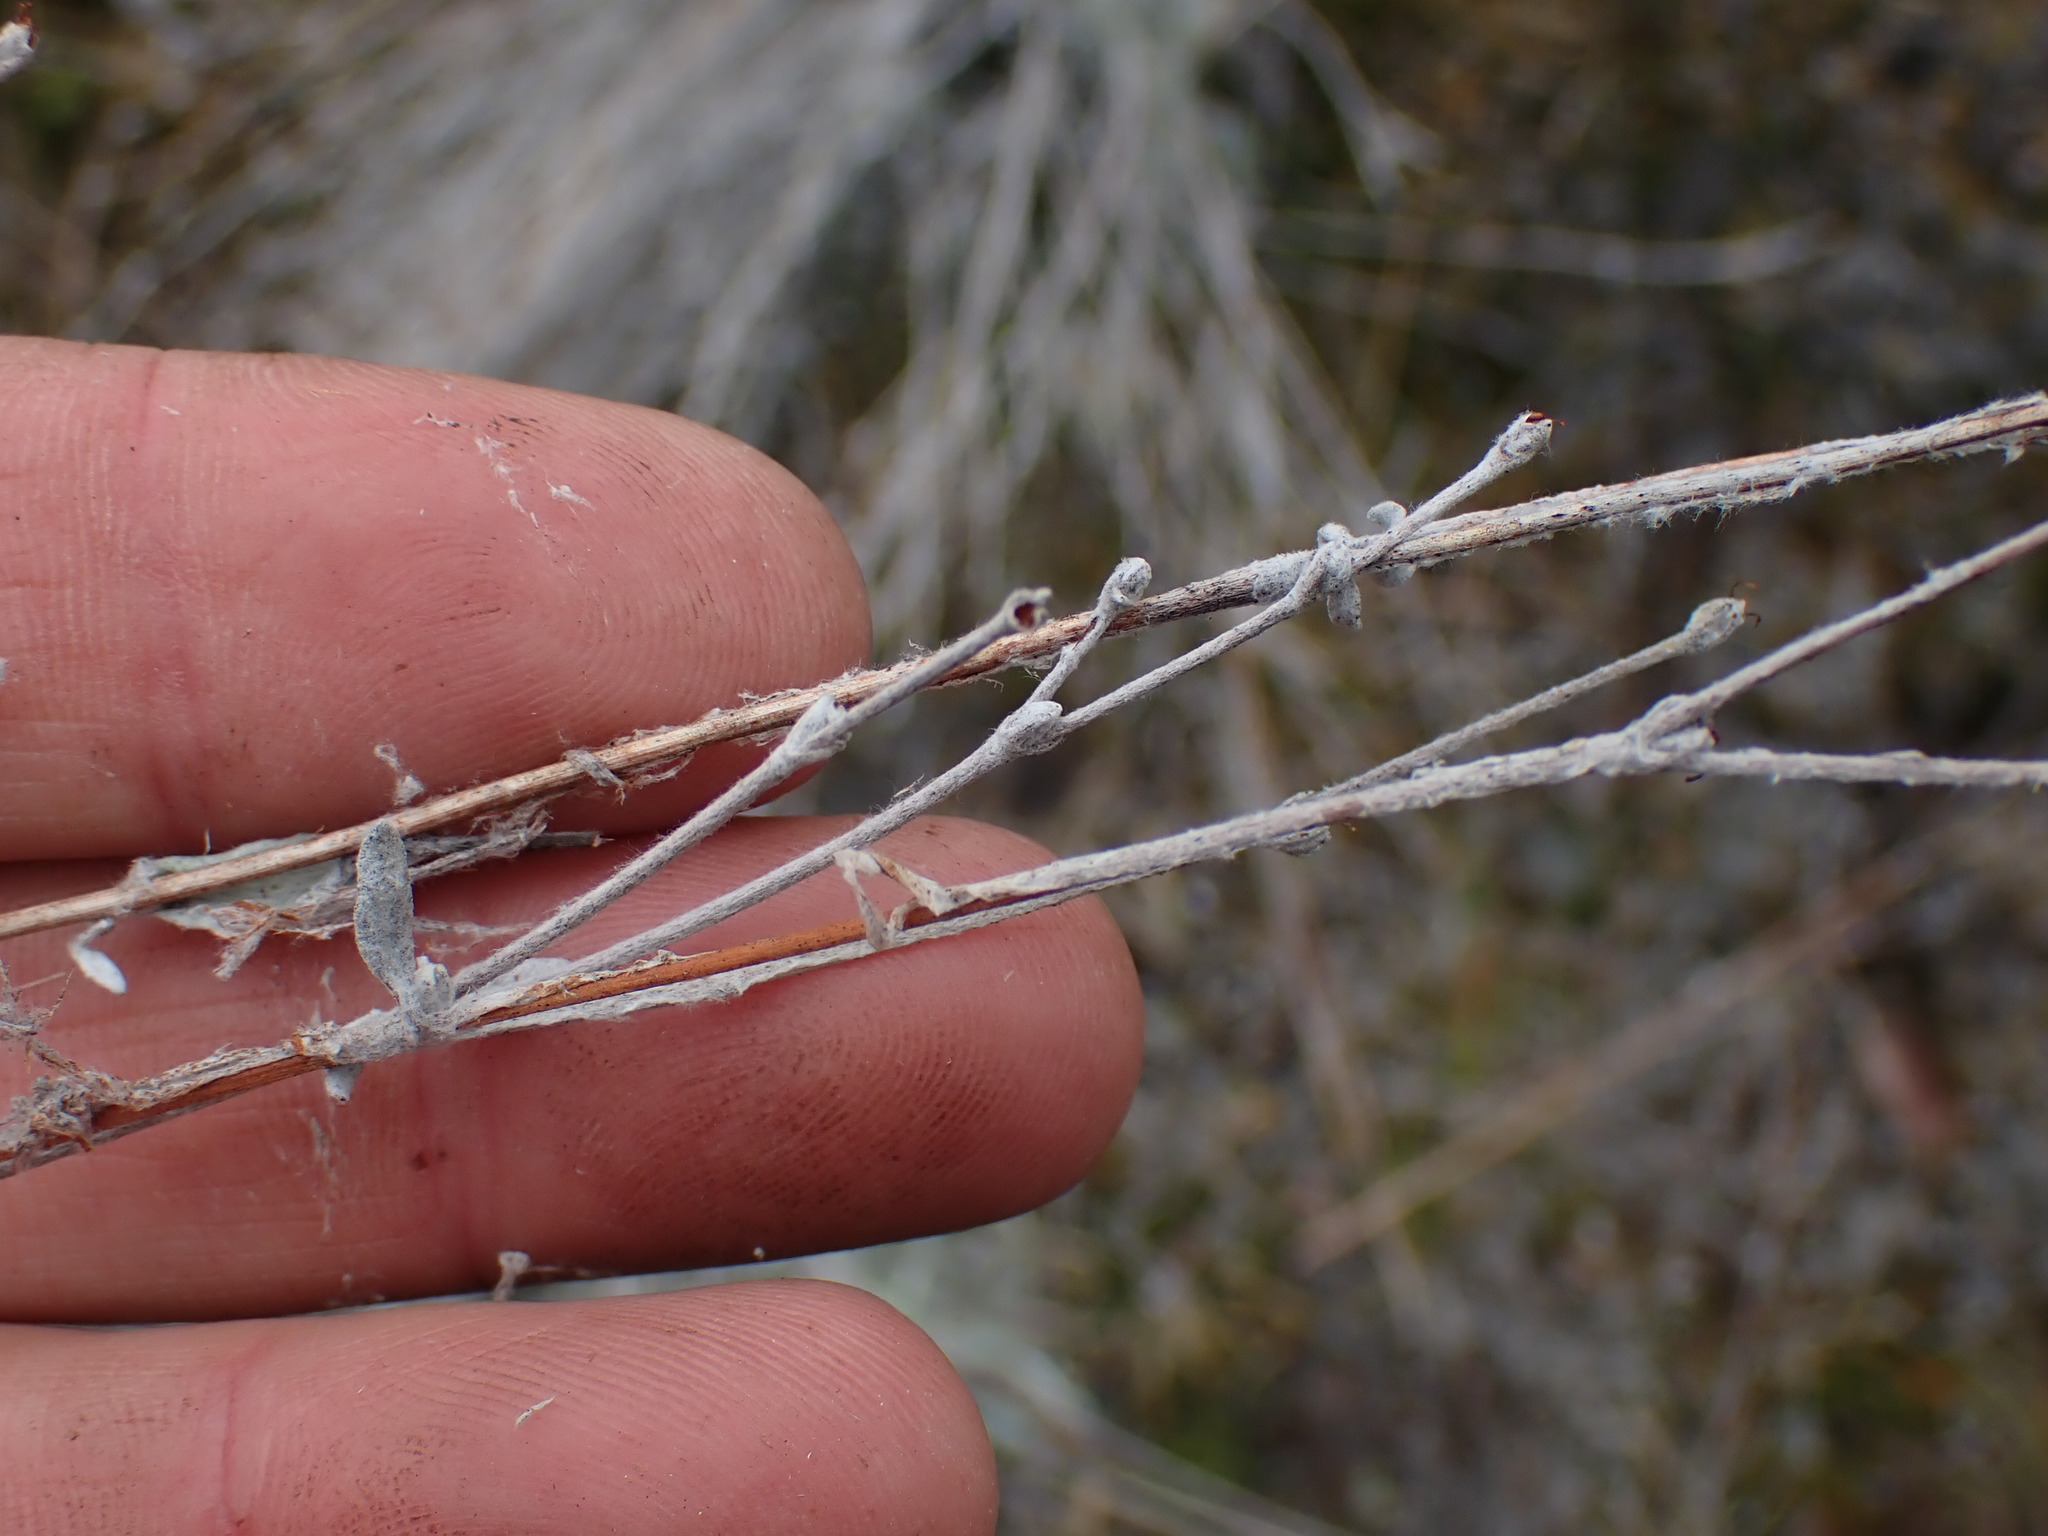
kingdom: Plantae
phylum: Tracheophyta
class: Magnoliopsida
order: Caryophyllales
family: Polygonaceae
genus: Eriogonum
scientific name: Eriogonum niveum
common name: Snow wild buckwheat
